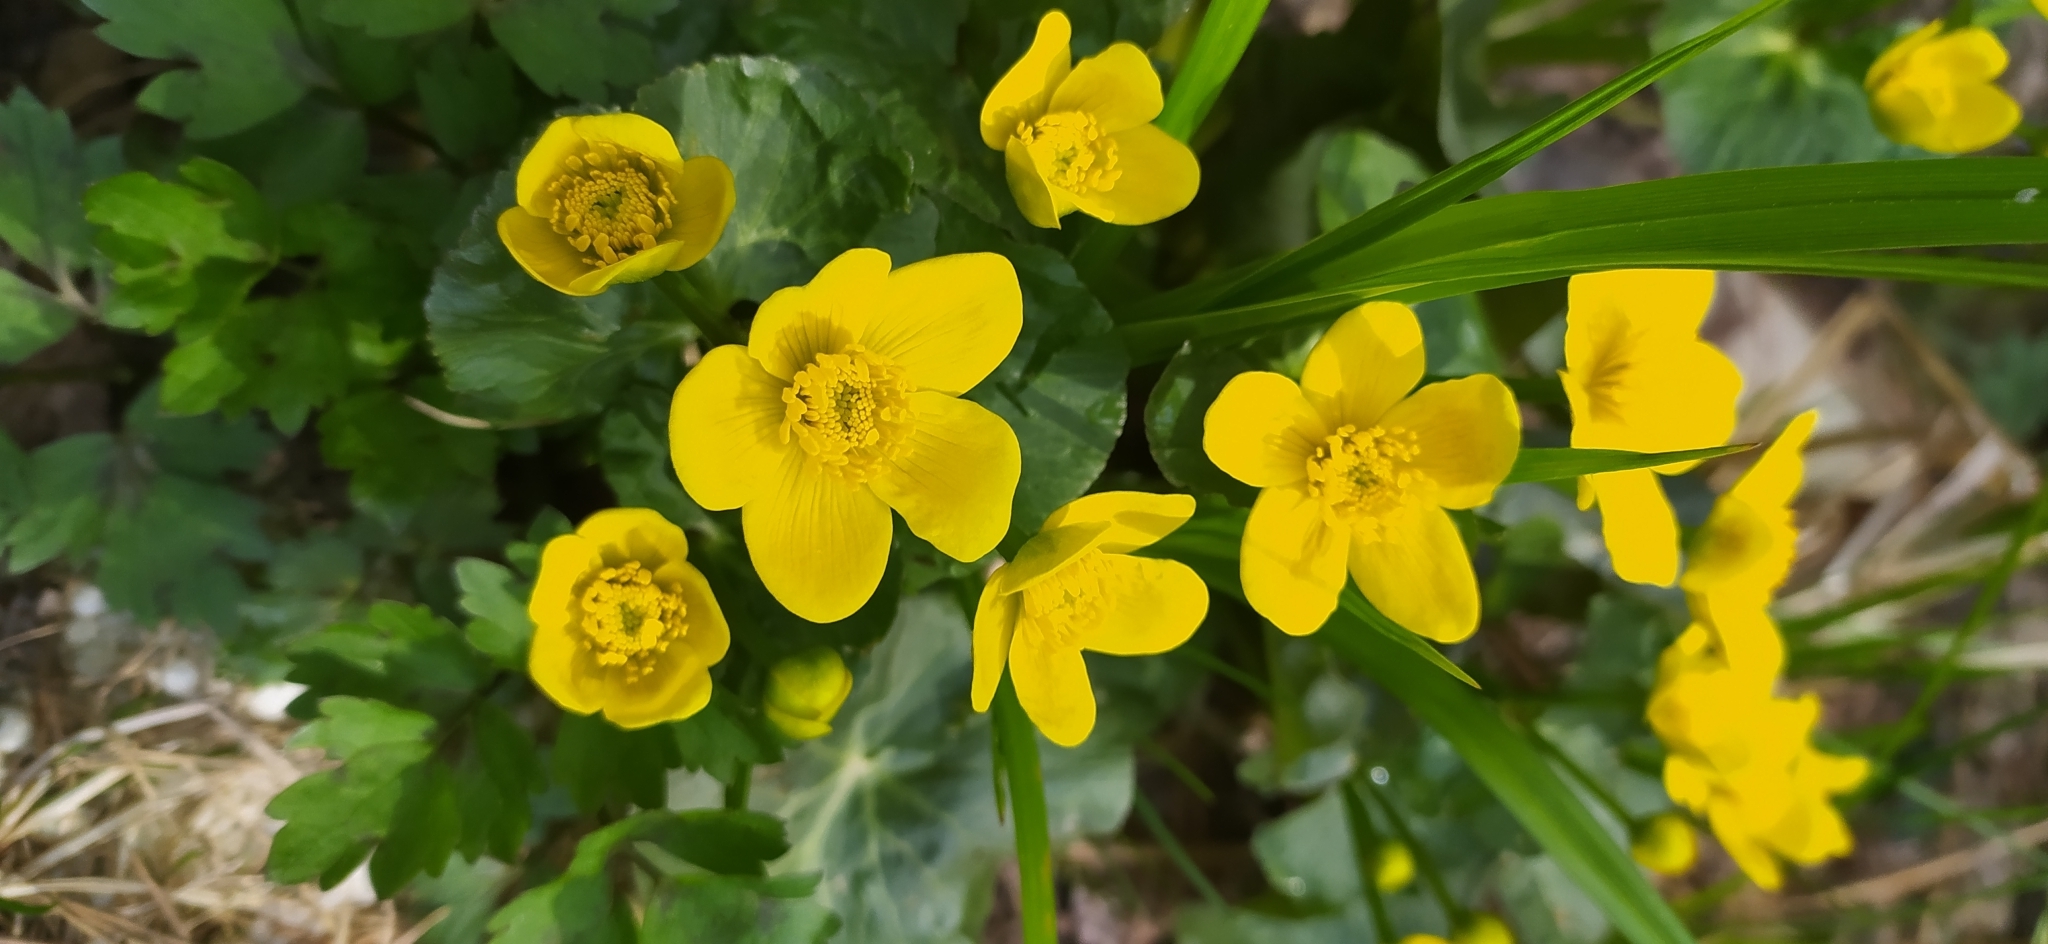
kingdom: Plantae
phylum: Tracheophyta
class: Magnoliopsida
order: Ranunculales
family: Ranunculaceae
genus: Caltha
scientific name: Caltha palustris
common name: Marsh marigold
